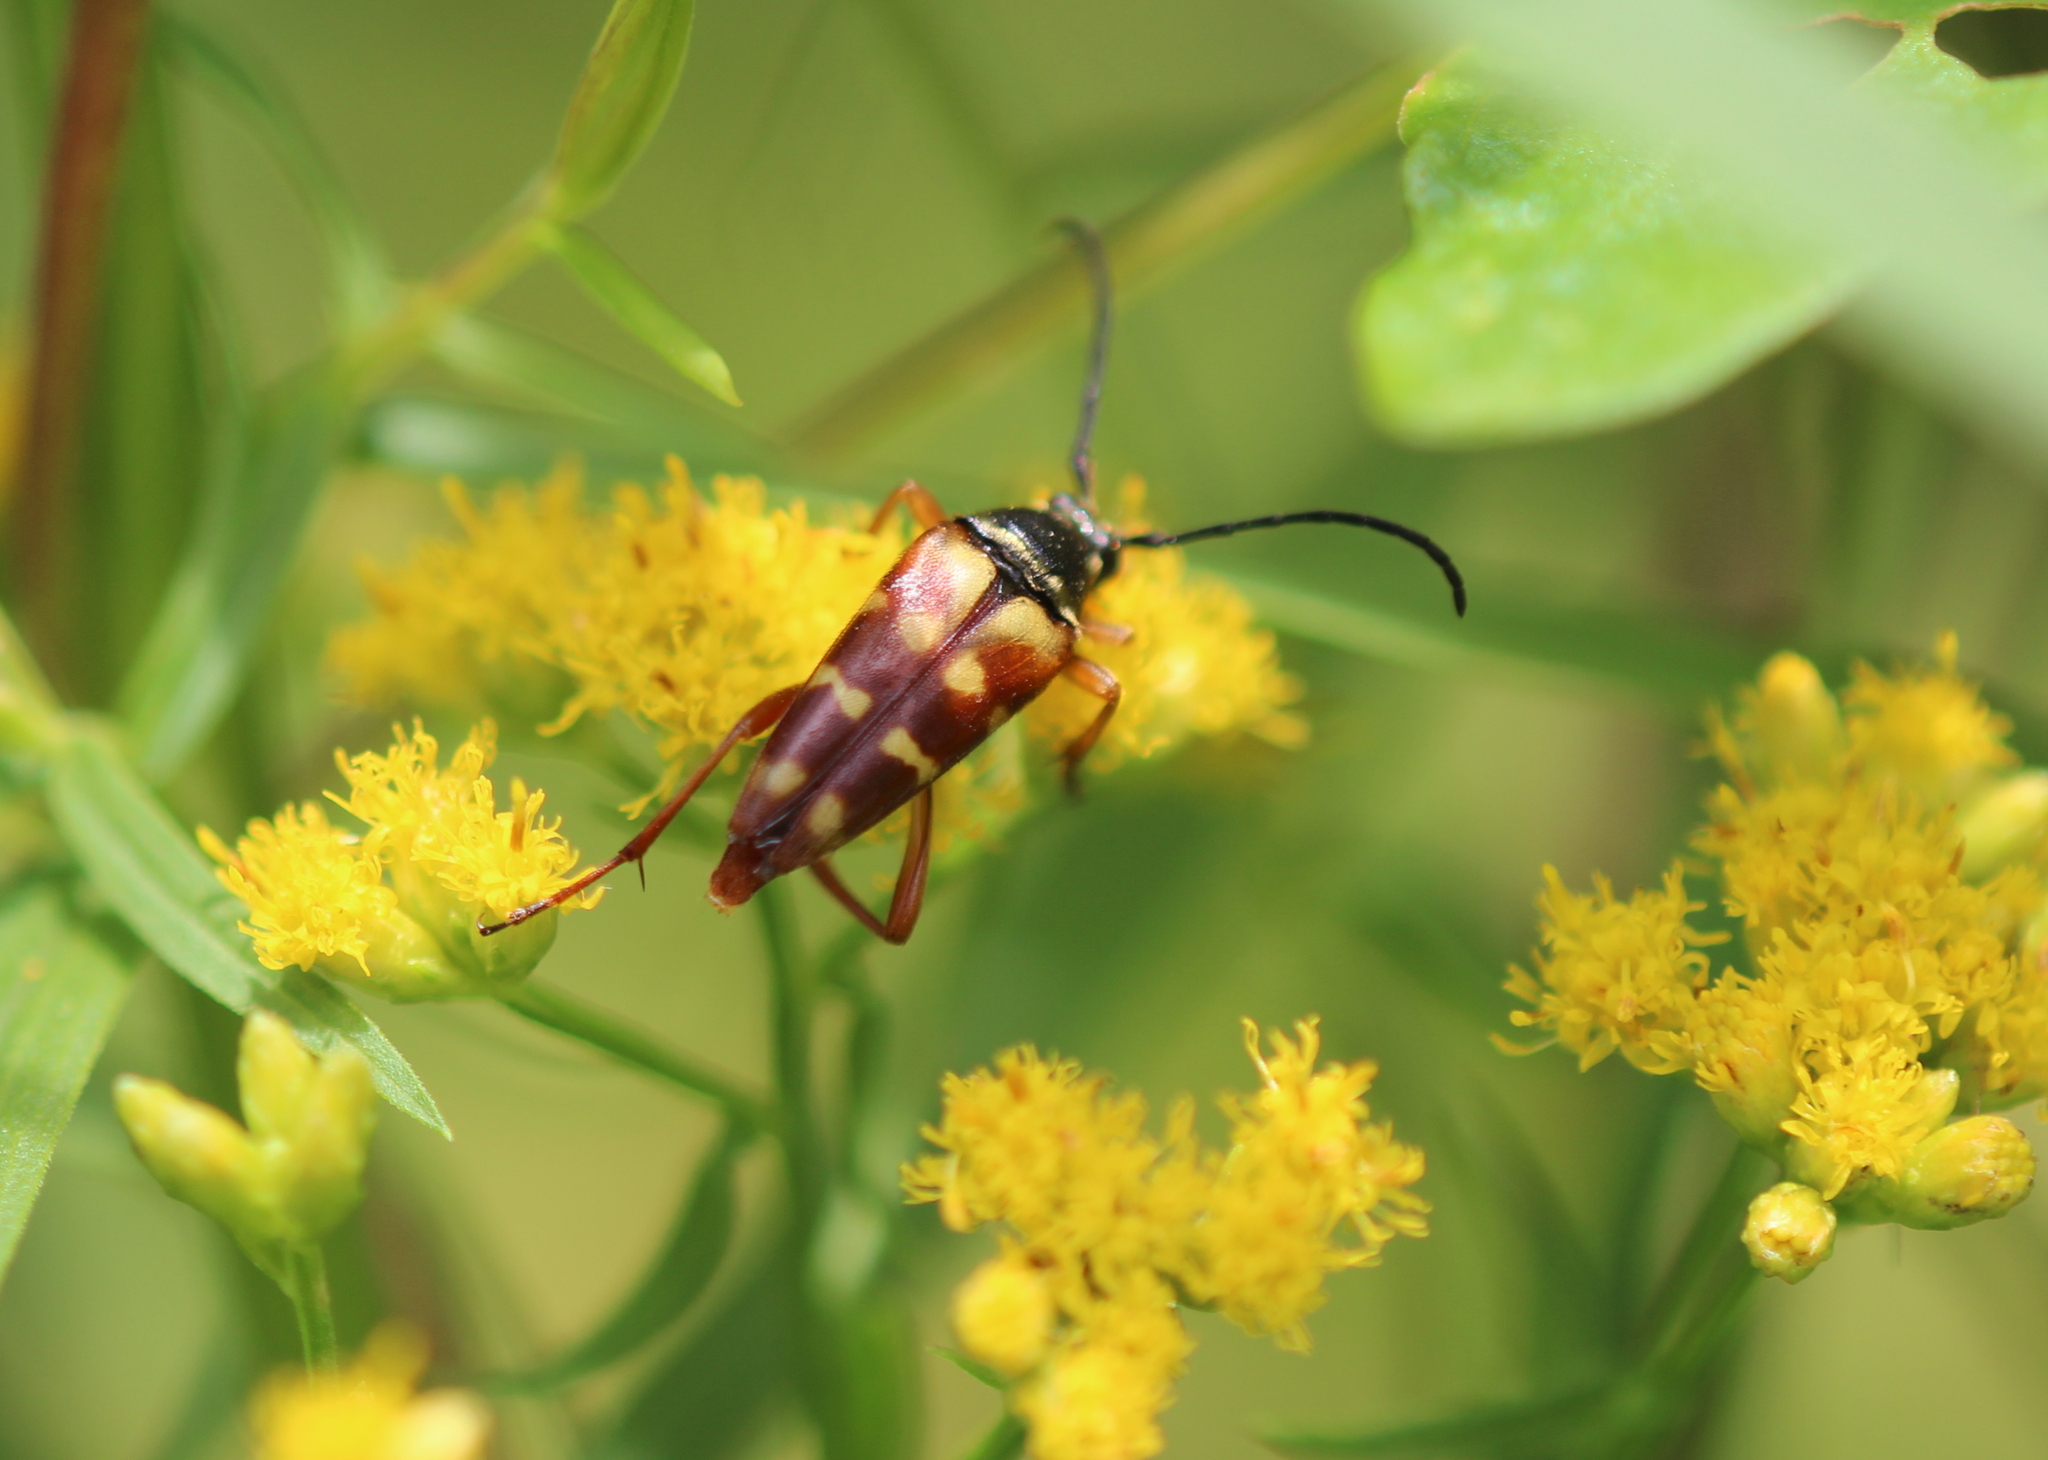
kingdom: Animalia
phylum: Arthropoda
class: Insecta
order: Coleoptera
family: Cerambycidae
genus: Typocerus
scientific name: Typocerus velutinus
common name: Banded longhorn beetle
